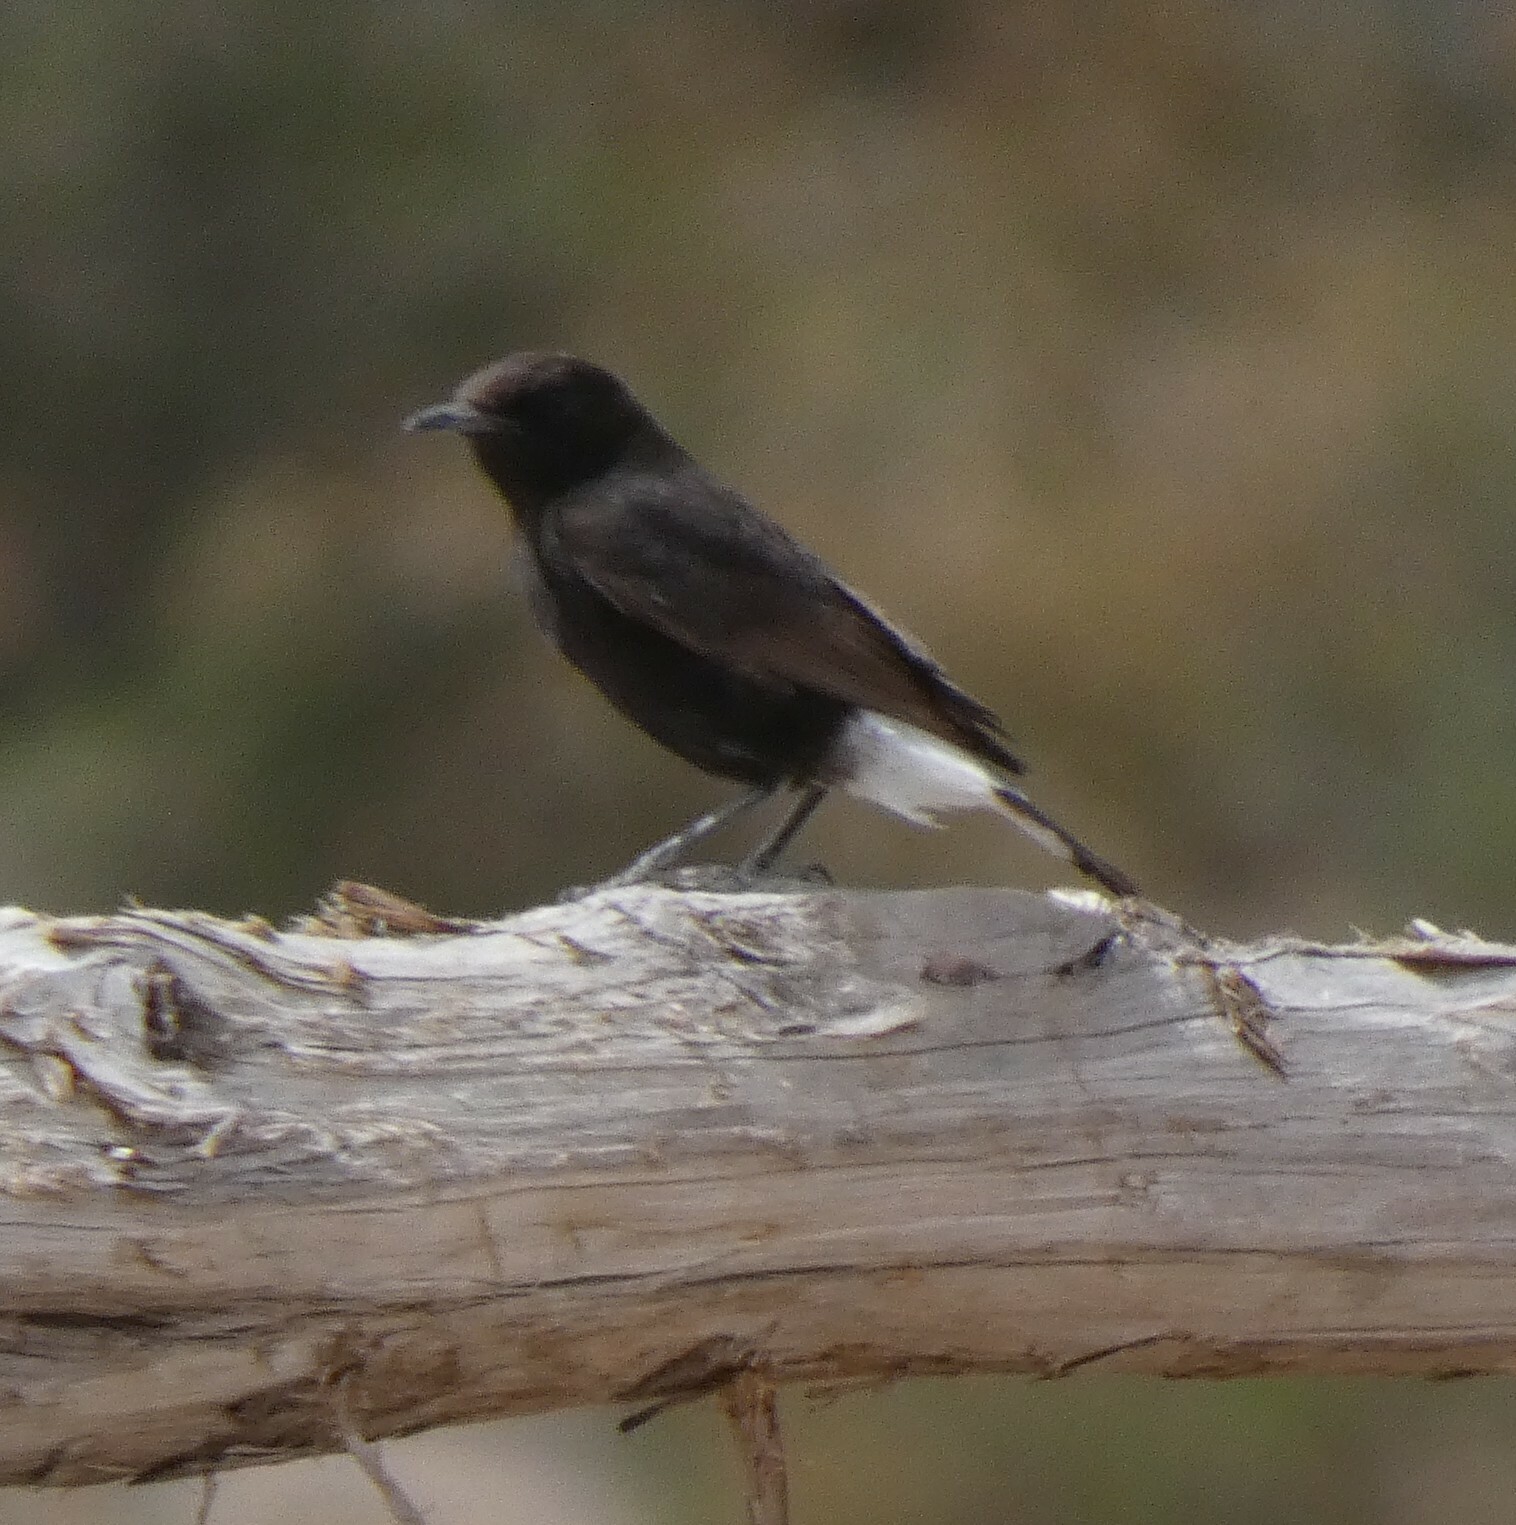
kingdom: Animalia
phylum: Chordata
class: Aves
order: Passeriformes
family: Muscicapidae
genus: Oenanthe
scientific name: Oenanthe leucura
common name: Black wheatear
